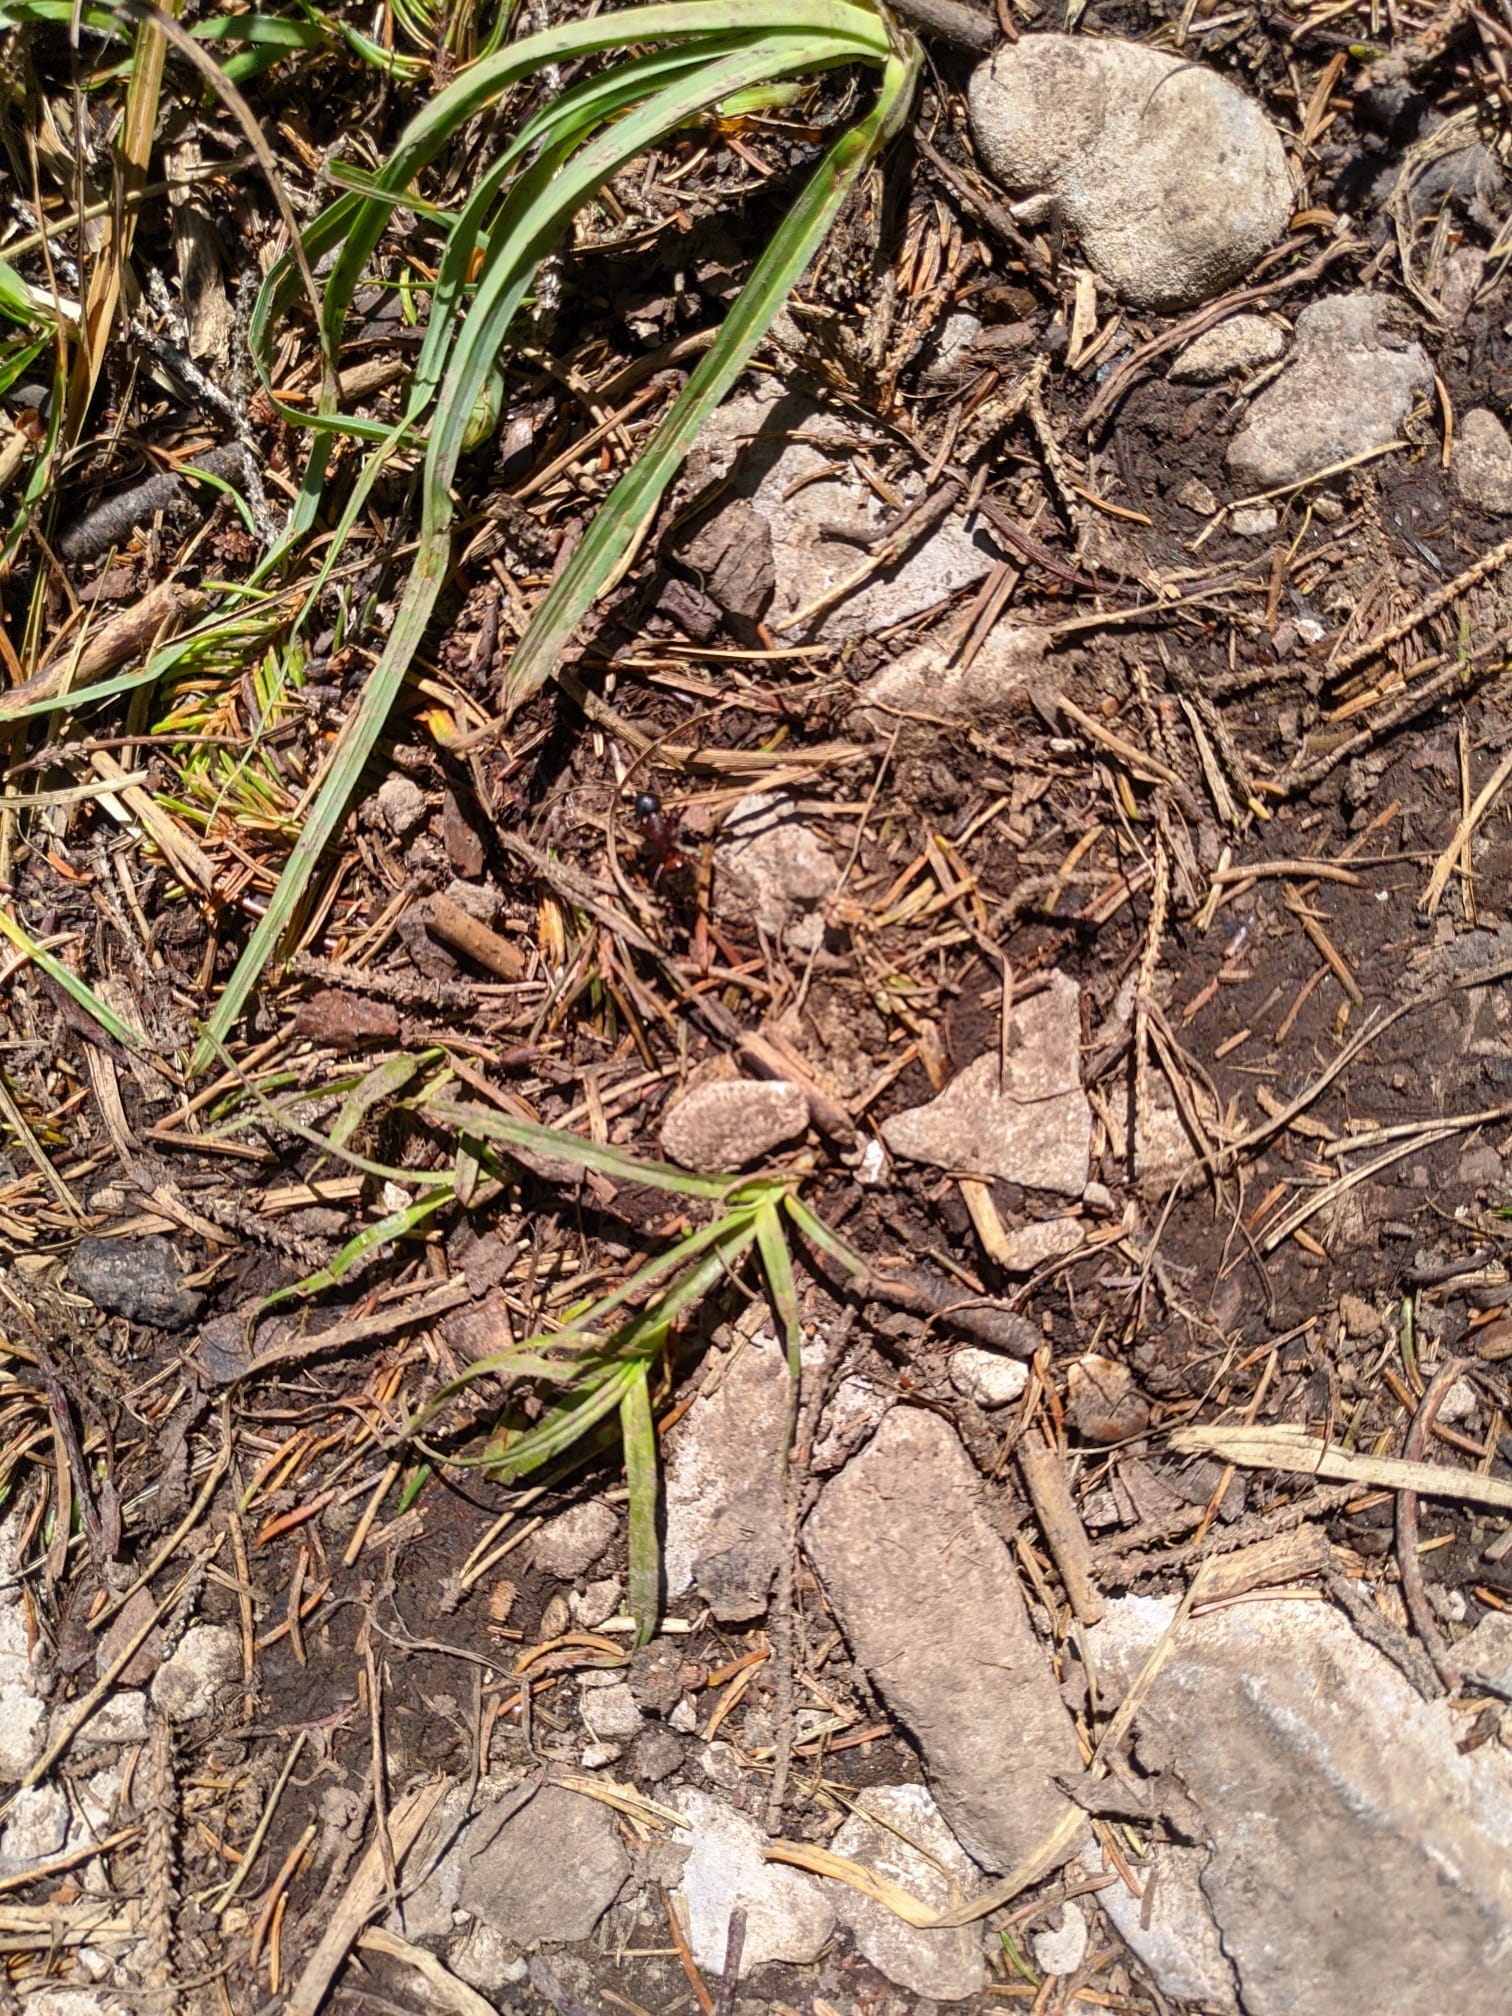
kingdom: Animalia
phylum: Arthropoda
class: Insecta
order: Hymenoptera
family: Formicidae
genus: Camponotus
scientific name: Camponotus ligniperdus
